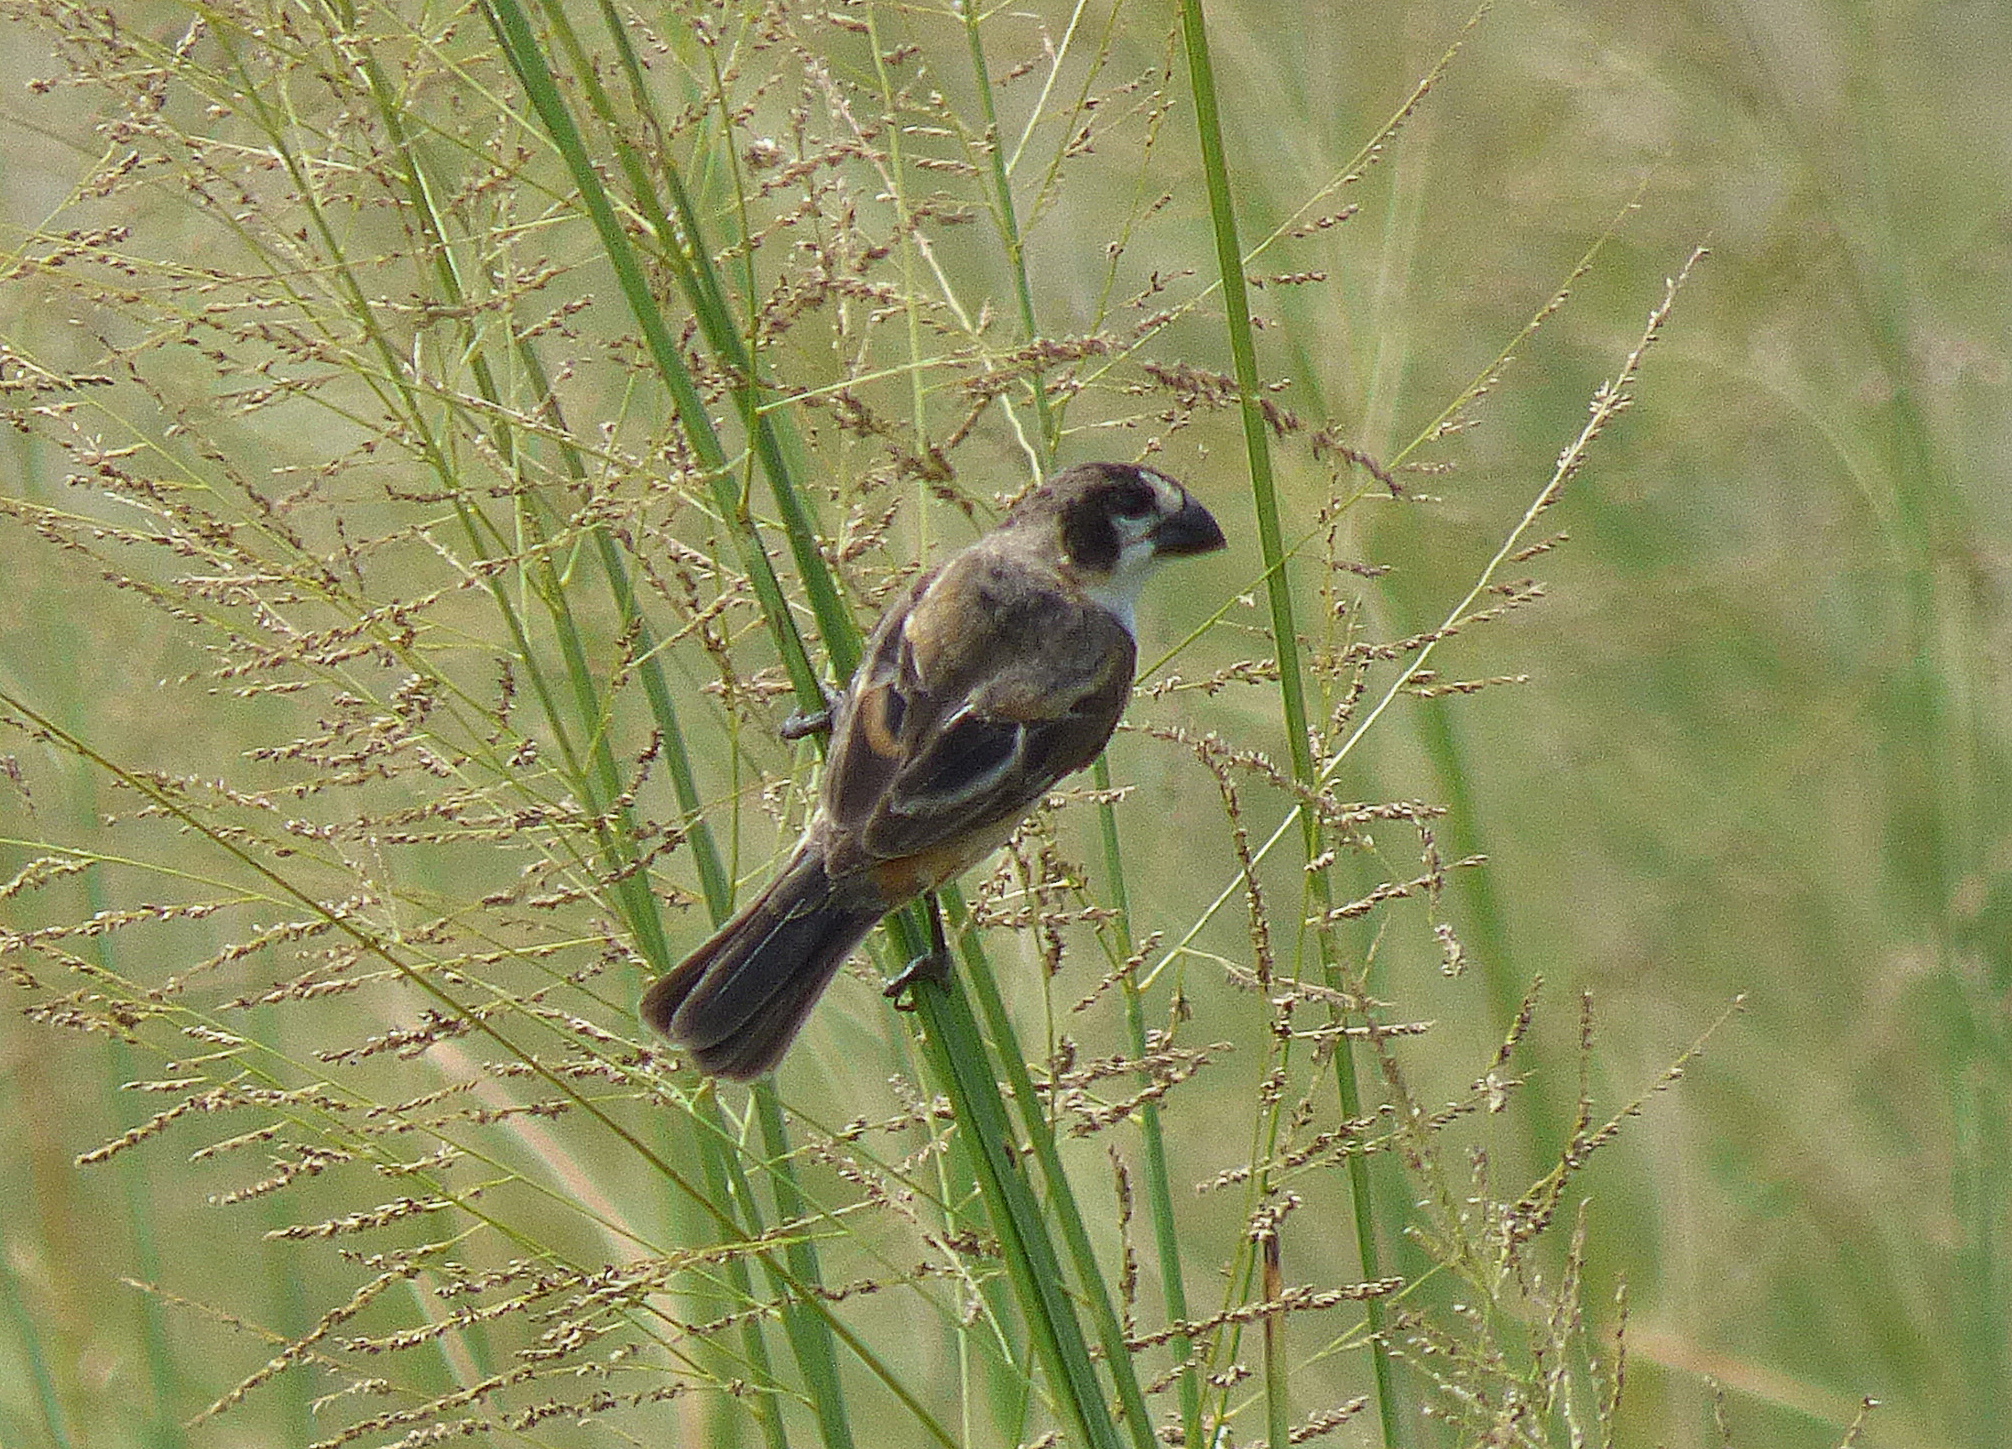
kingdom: Animalia
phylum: Chordata
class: Aves
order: Passeriformes
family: Thraupidae
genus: Sporophila
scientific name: Sporophila collaris
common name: Rusty-collared seedeater
